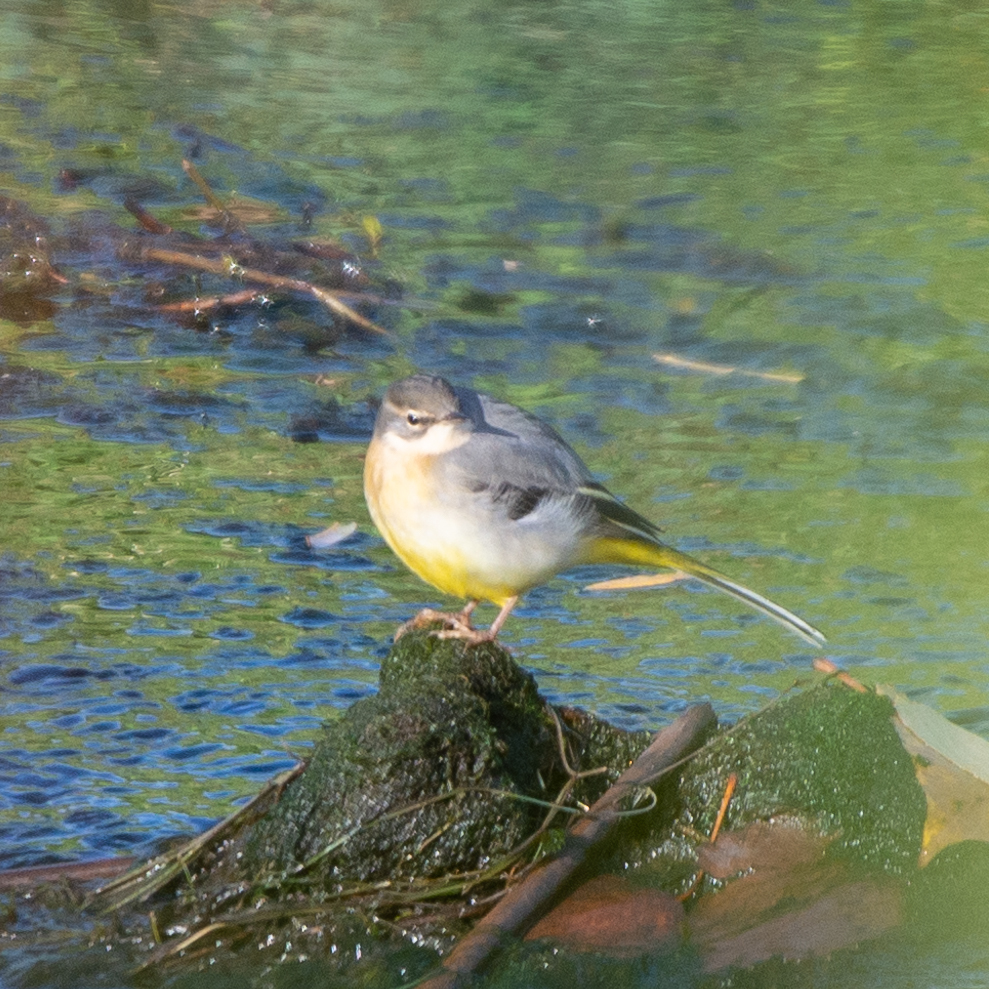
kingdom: Animalia
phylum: Chordata
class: Aves
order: Passeriformes
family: Motacillidae
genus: Motacilla
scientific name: Motacilla cinerea
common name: Grey wagtail
